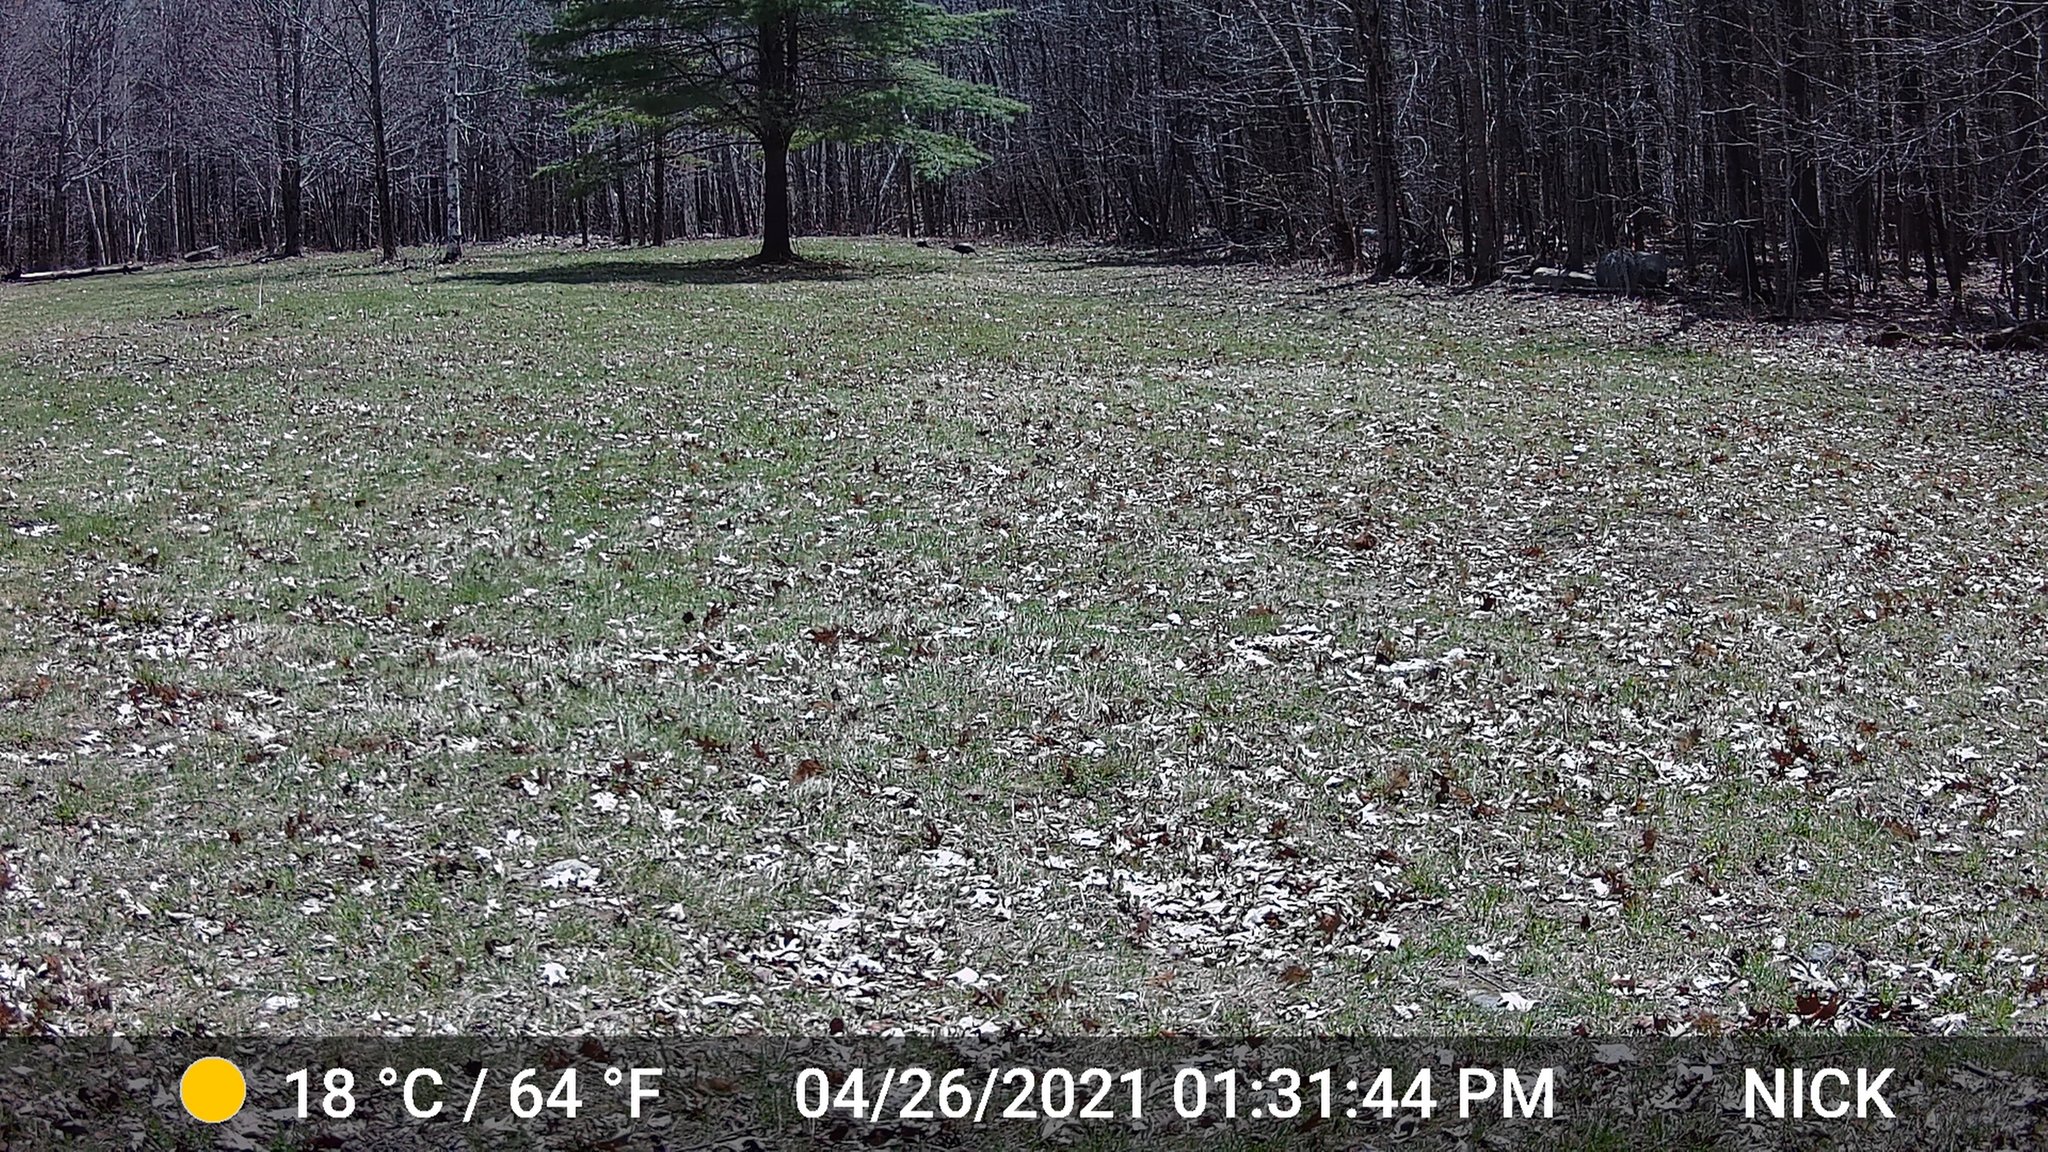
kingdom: Animalia
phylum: Chordata
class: Aves
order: Galliformes
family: Phasianidae
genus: Meleagris
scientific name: Meleagris gallopavo
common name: Wild turkey
